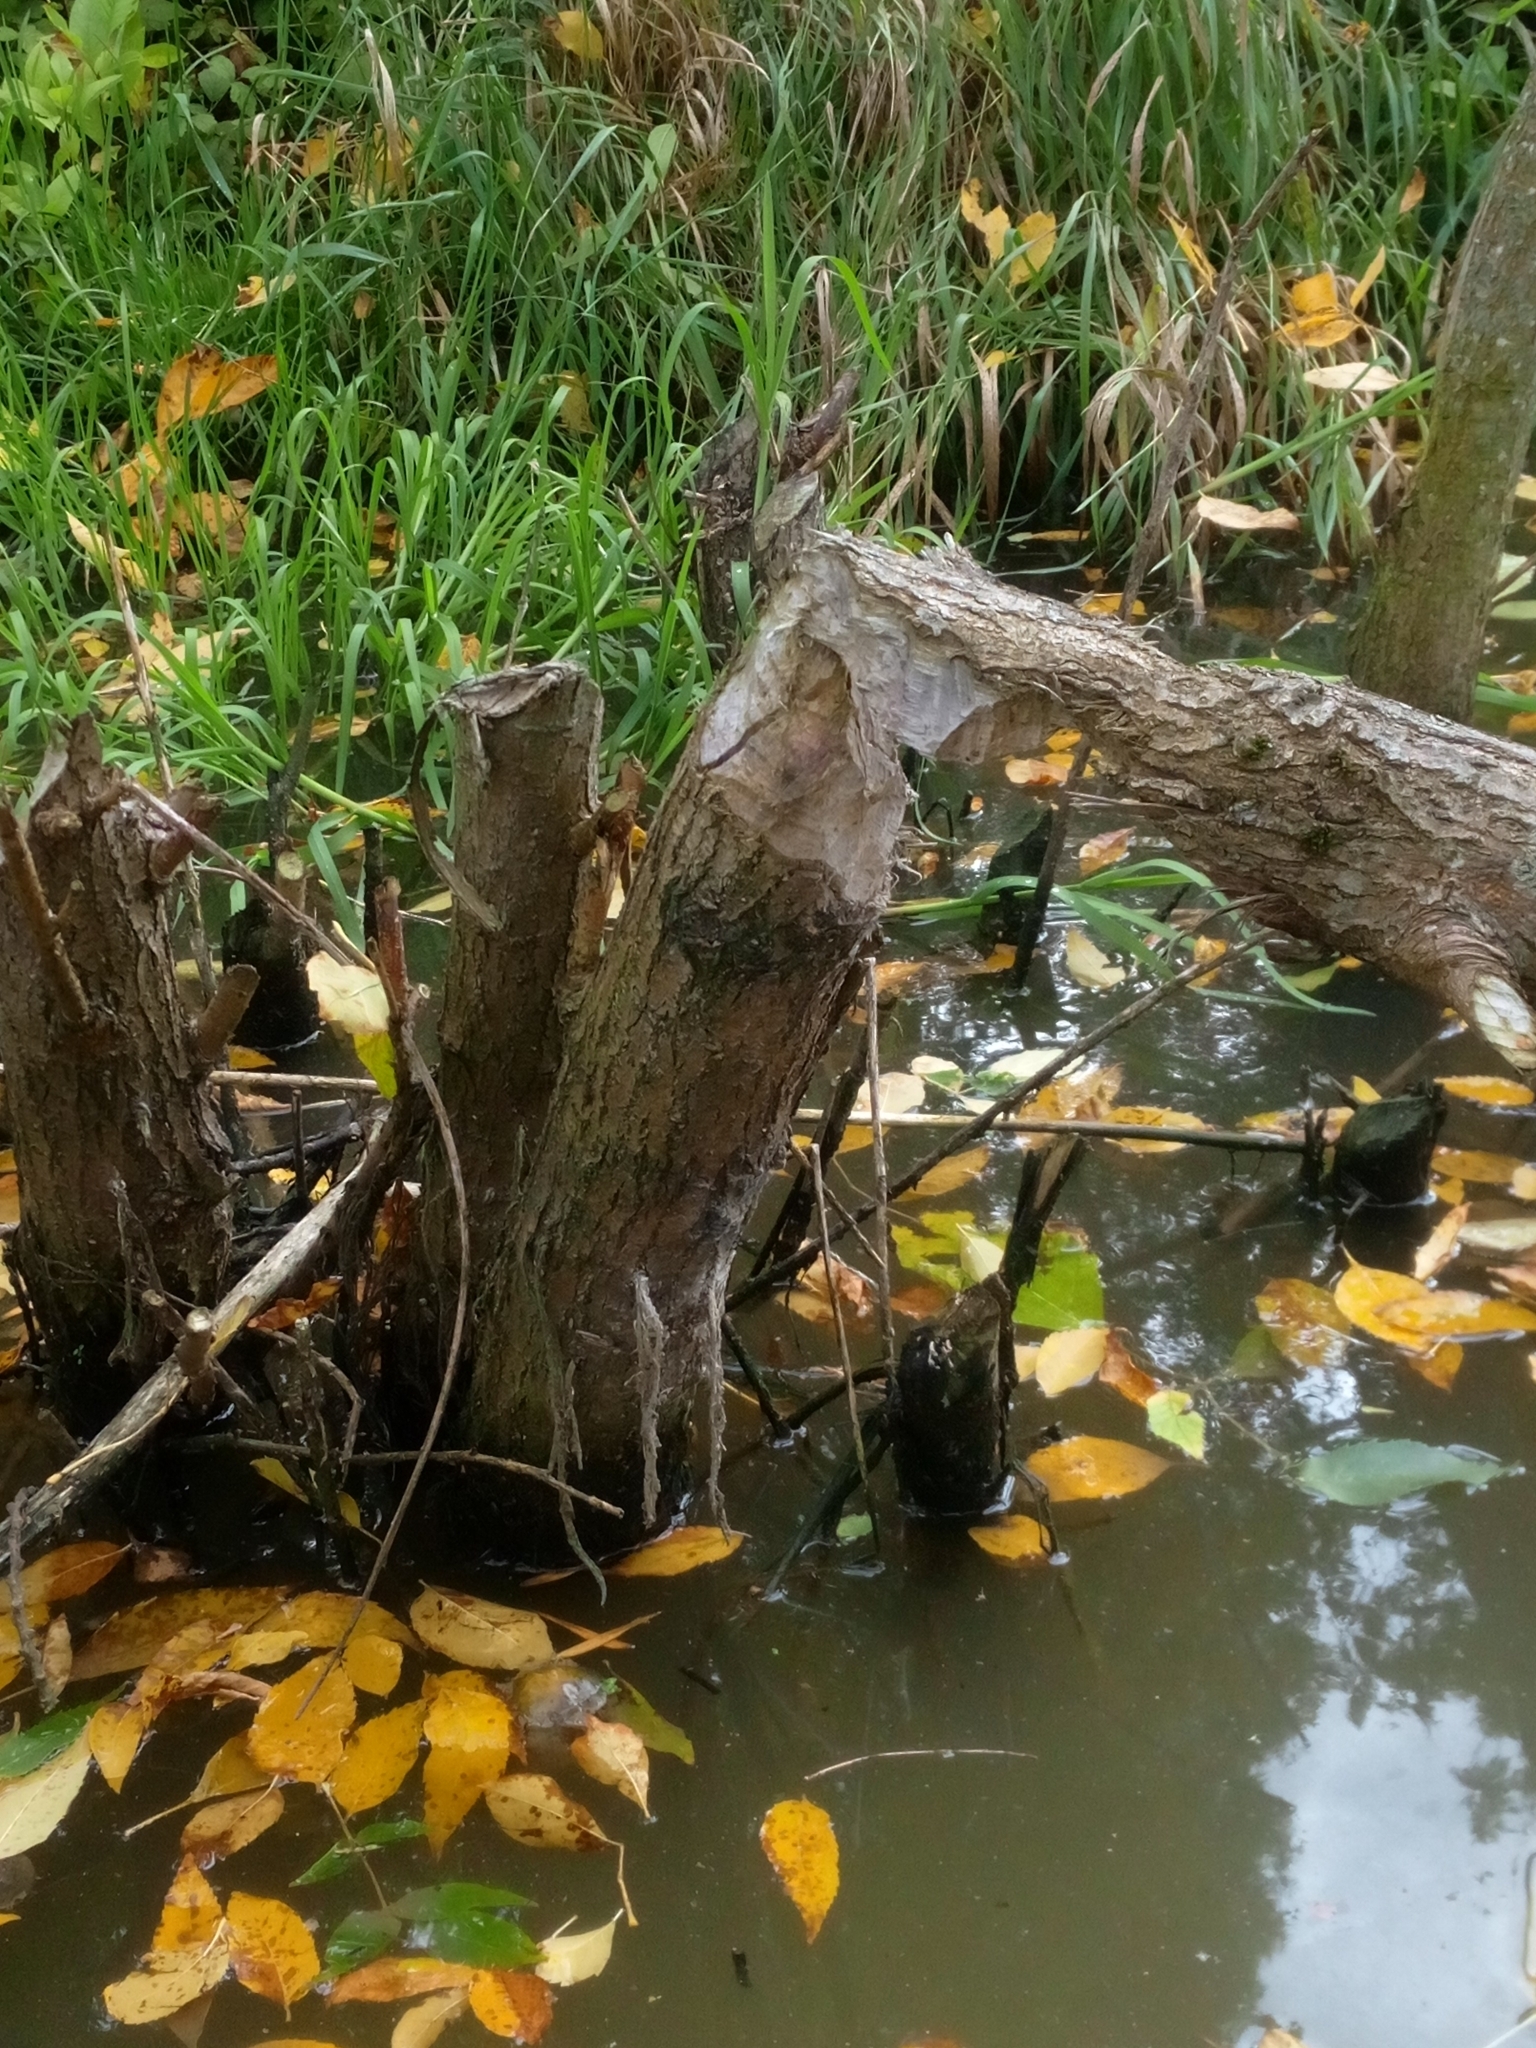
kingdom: Animalia
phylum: Chordata
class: Mammalia
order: Rodentia
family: Castoridae
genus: Castor
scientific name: Castor fiber
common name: Eurasian beaver
